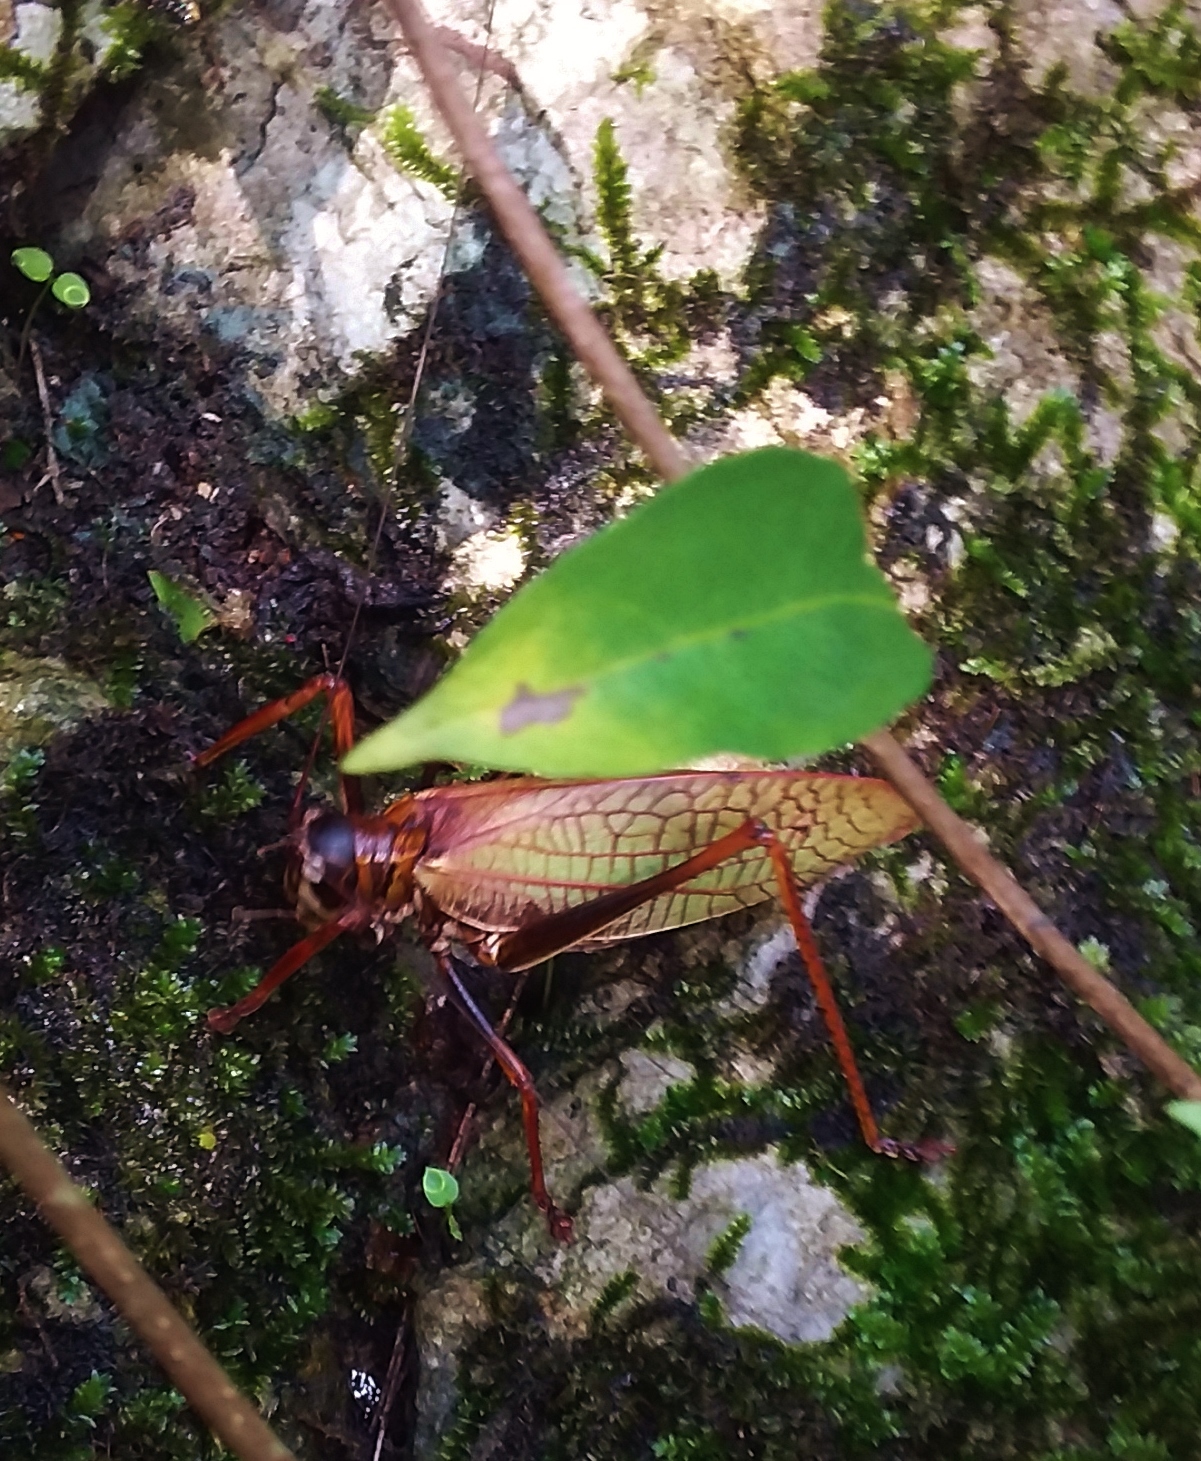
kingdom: Animalia
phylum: Arthropoda
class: Insecta
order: Orthoptera
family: Tettigoniidae
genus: Pterophylla
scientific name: Pterophylla beltrani
